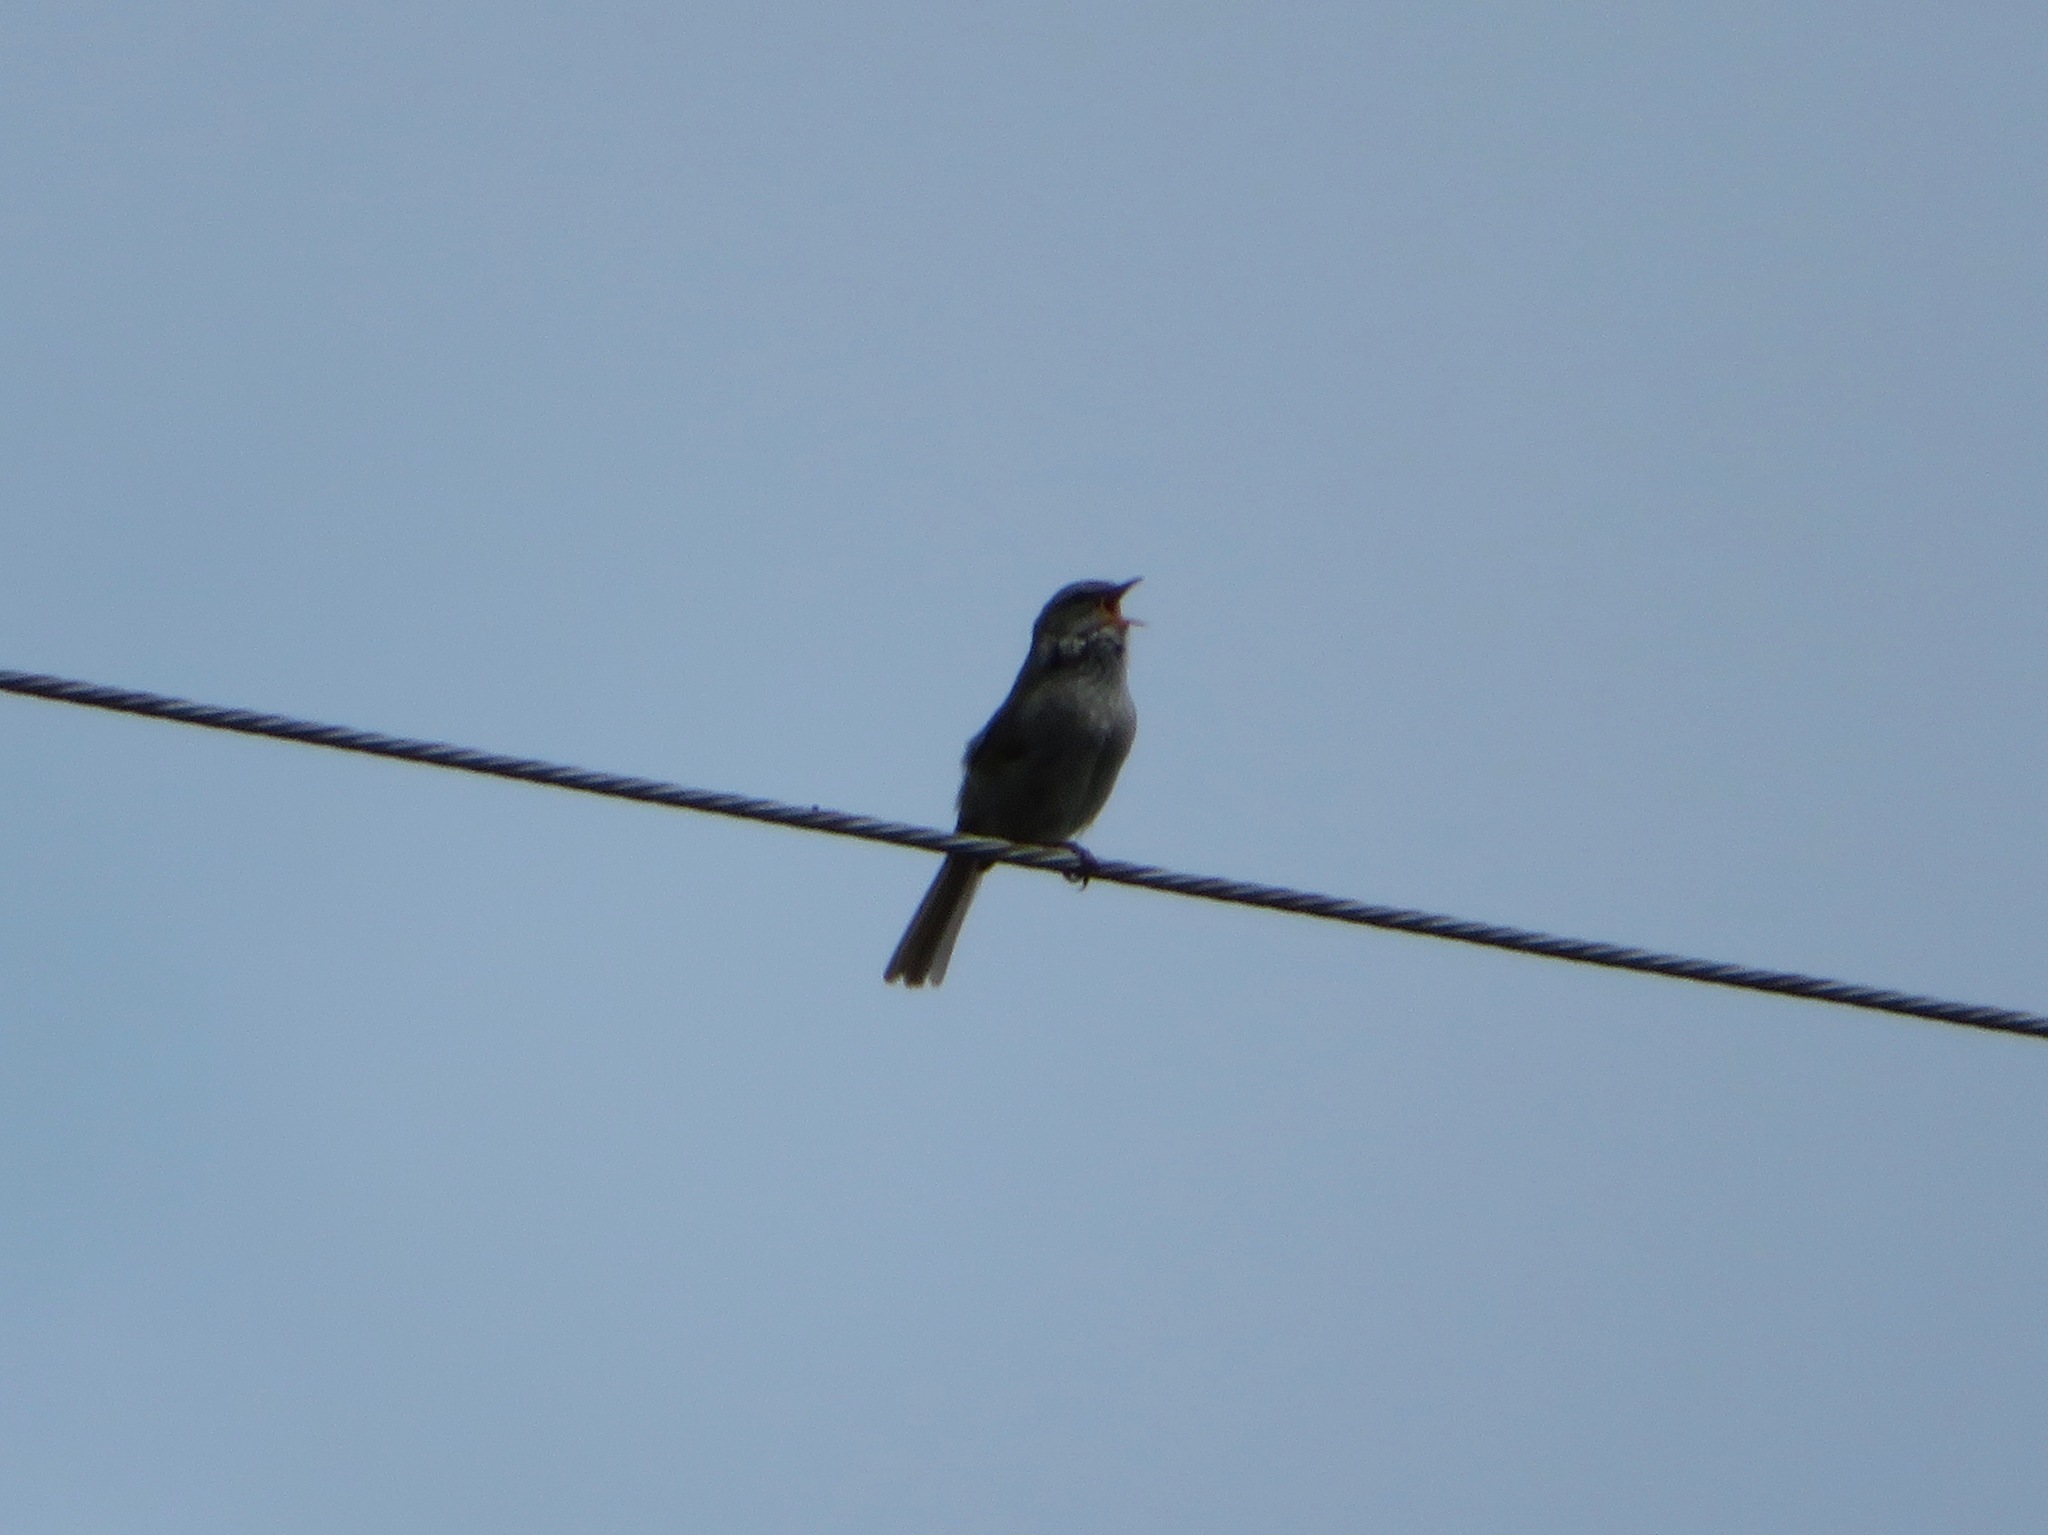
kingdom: Animalia
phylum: Chordata
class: Aves
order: Passeriformes
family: Cettiidae
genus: Horornis
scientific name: Horornis diphone
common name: Japanese bush warbler
